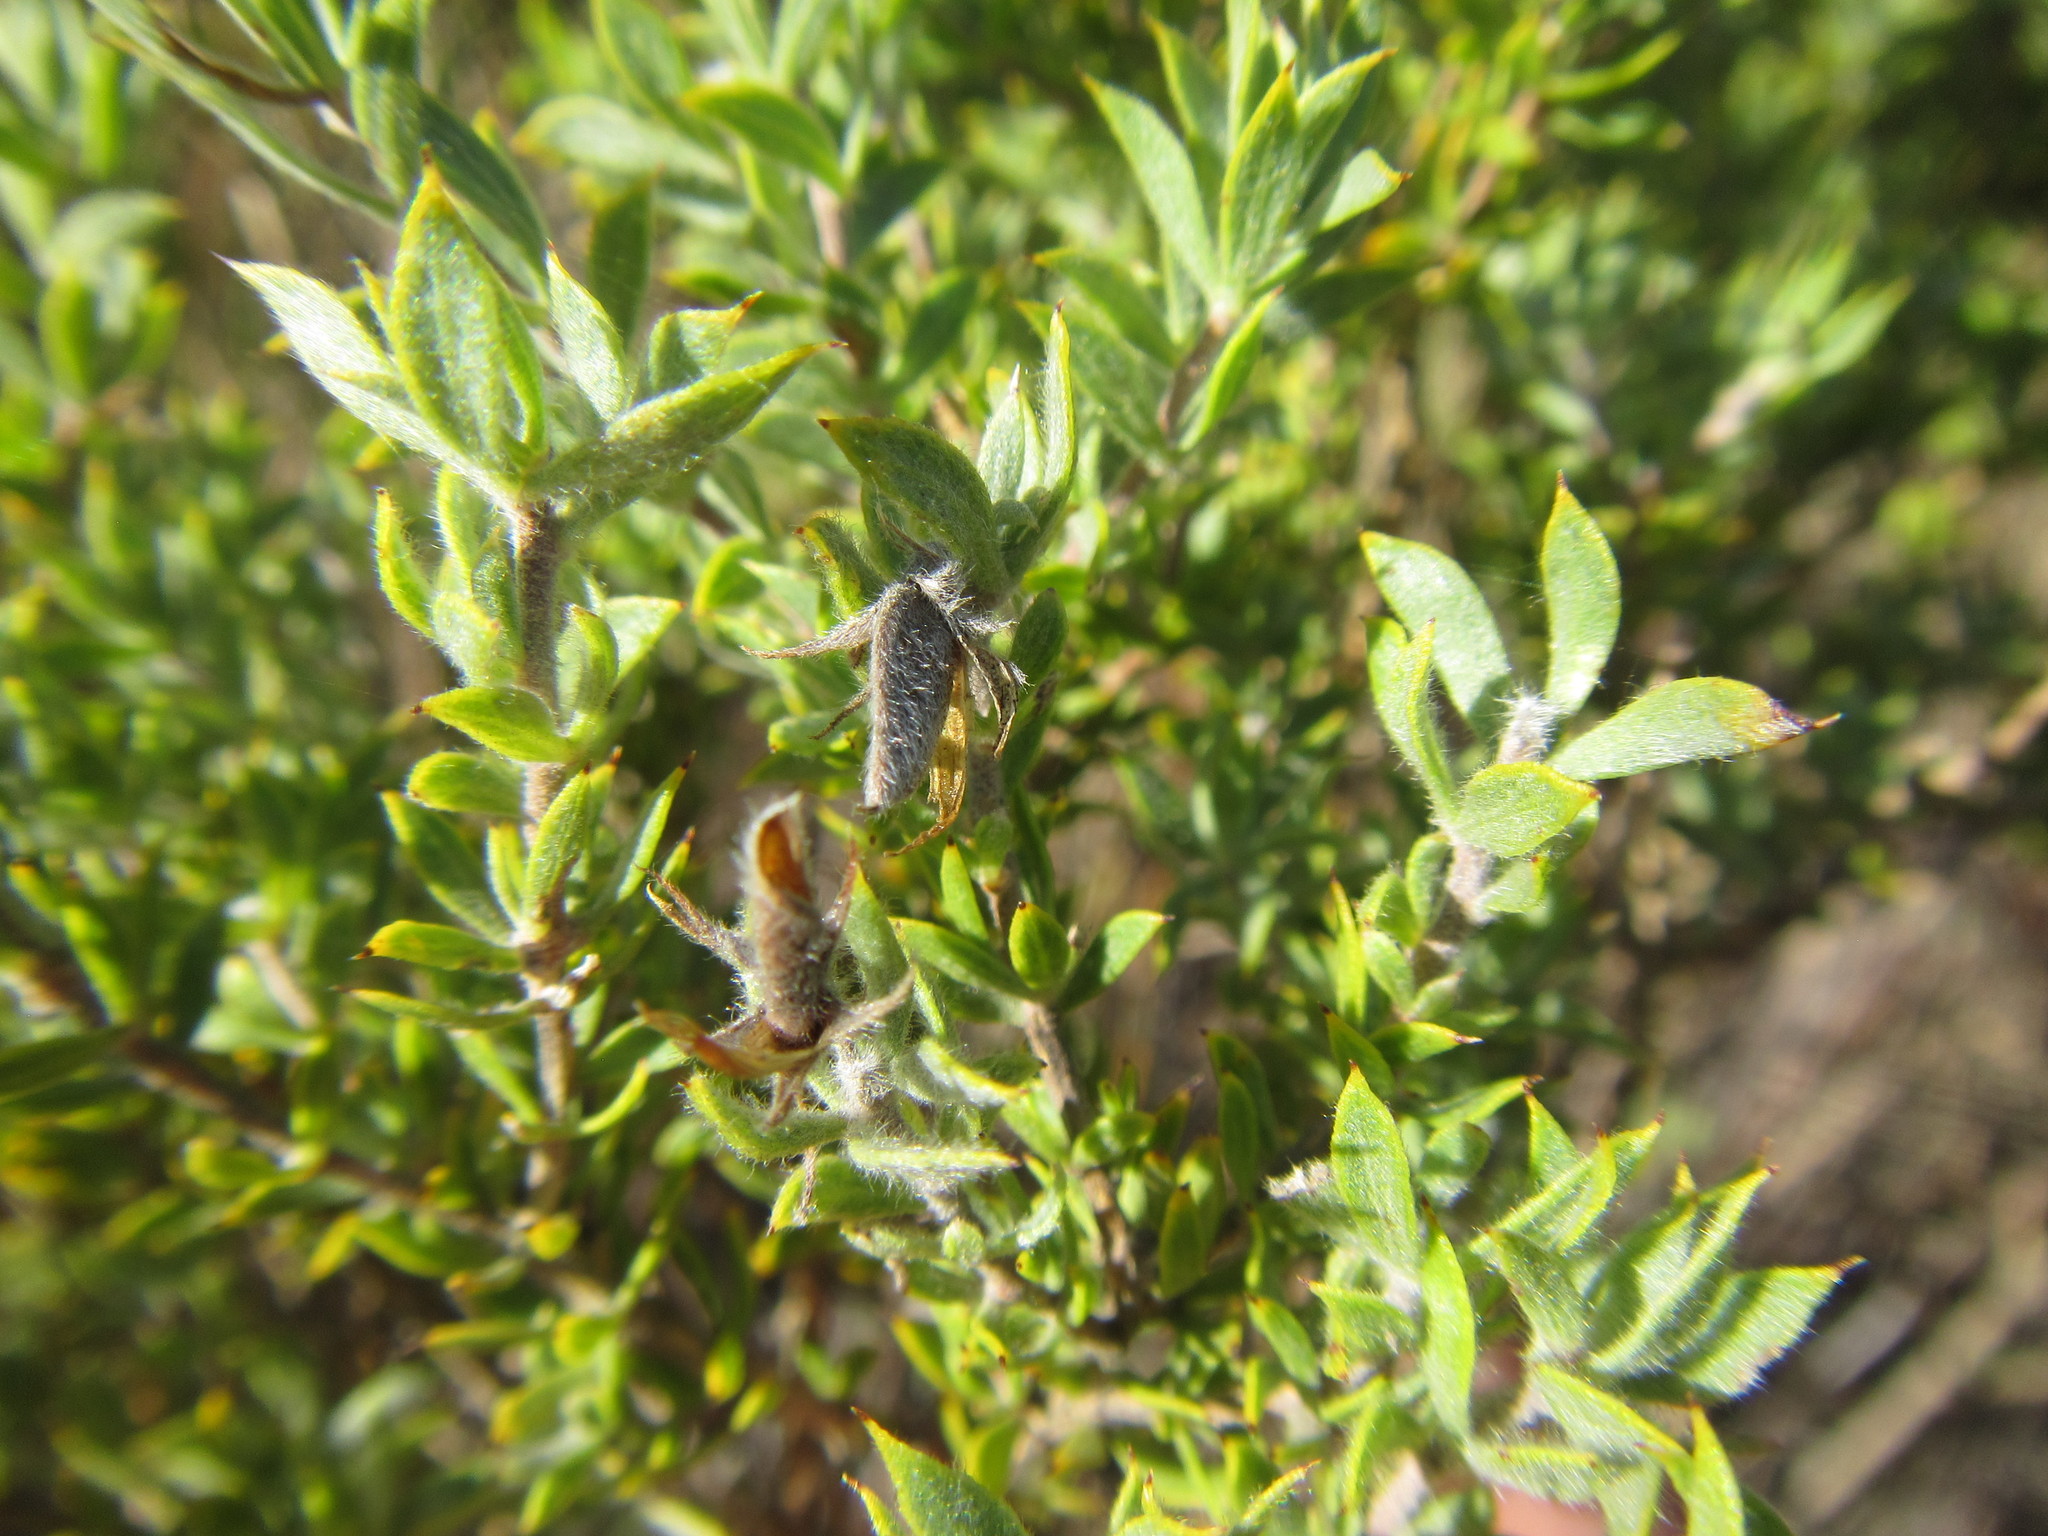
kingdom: Plantae
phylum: Tracheophyta
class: Magnoliopsida
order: Fabales
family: Fabaceae
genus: Aspalathus
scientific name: Aspalathus cytisoides
